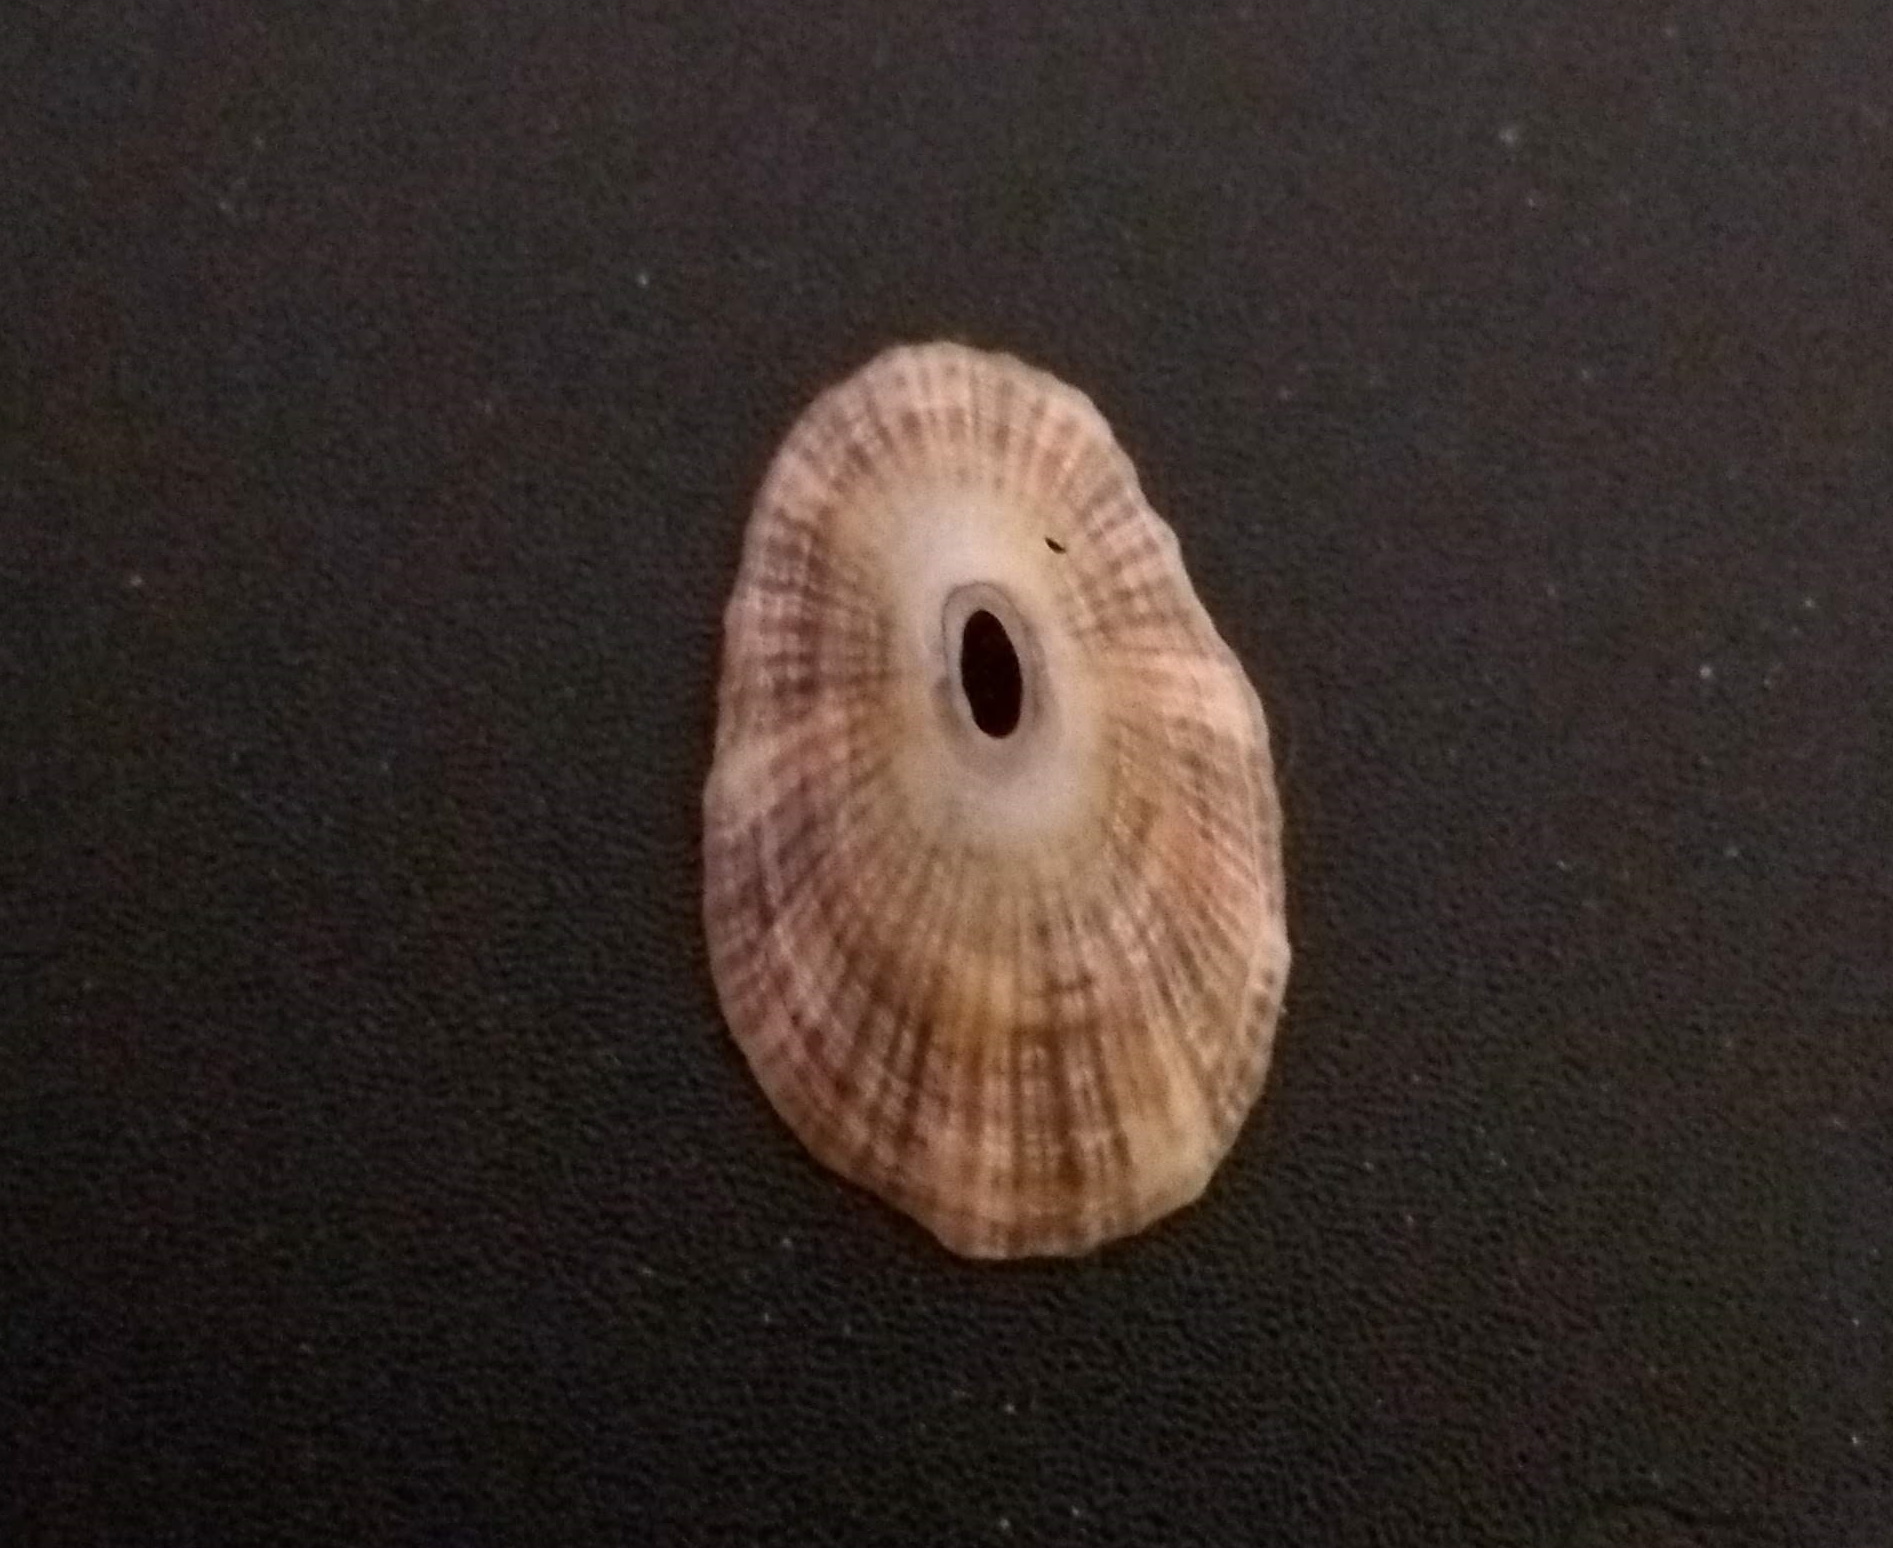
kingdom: Animalia
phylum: Mollusca
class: Gastropoda
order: Lepetellida
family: Fissurellidae
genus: Fissurella
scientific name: Fissurella clenchi
